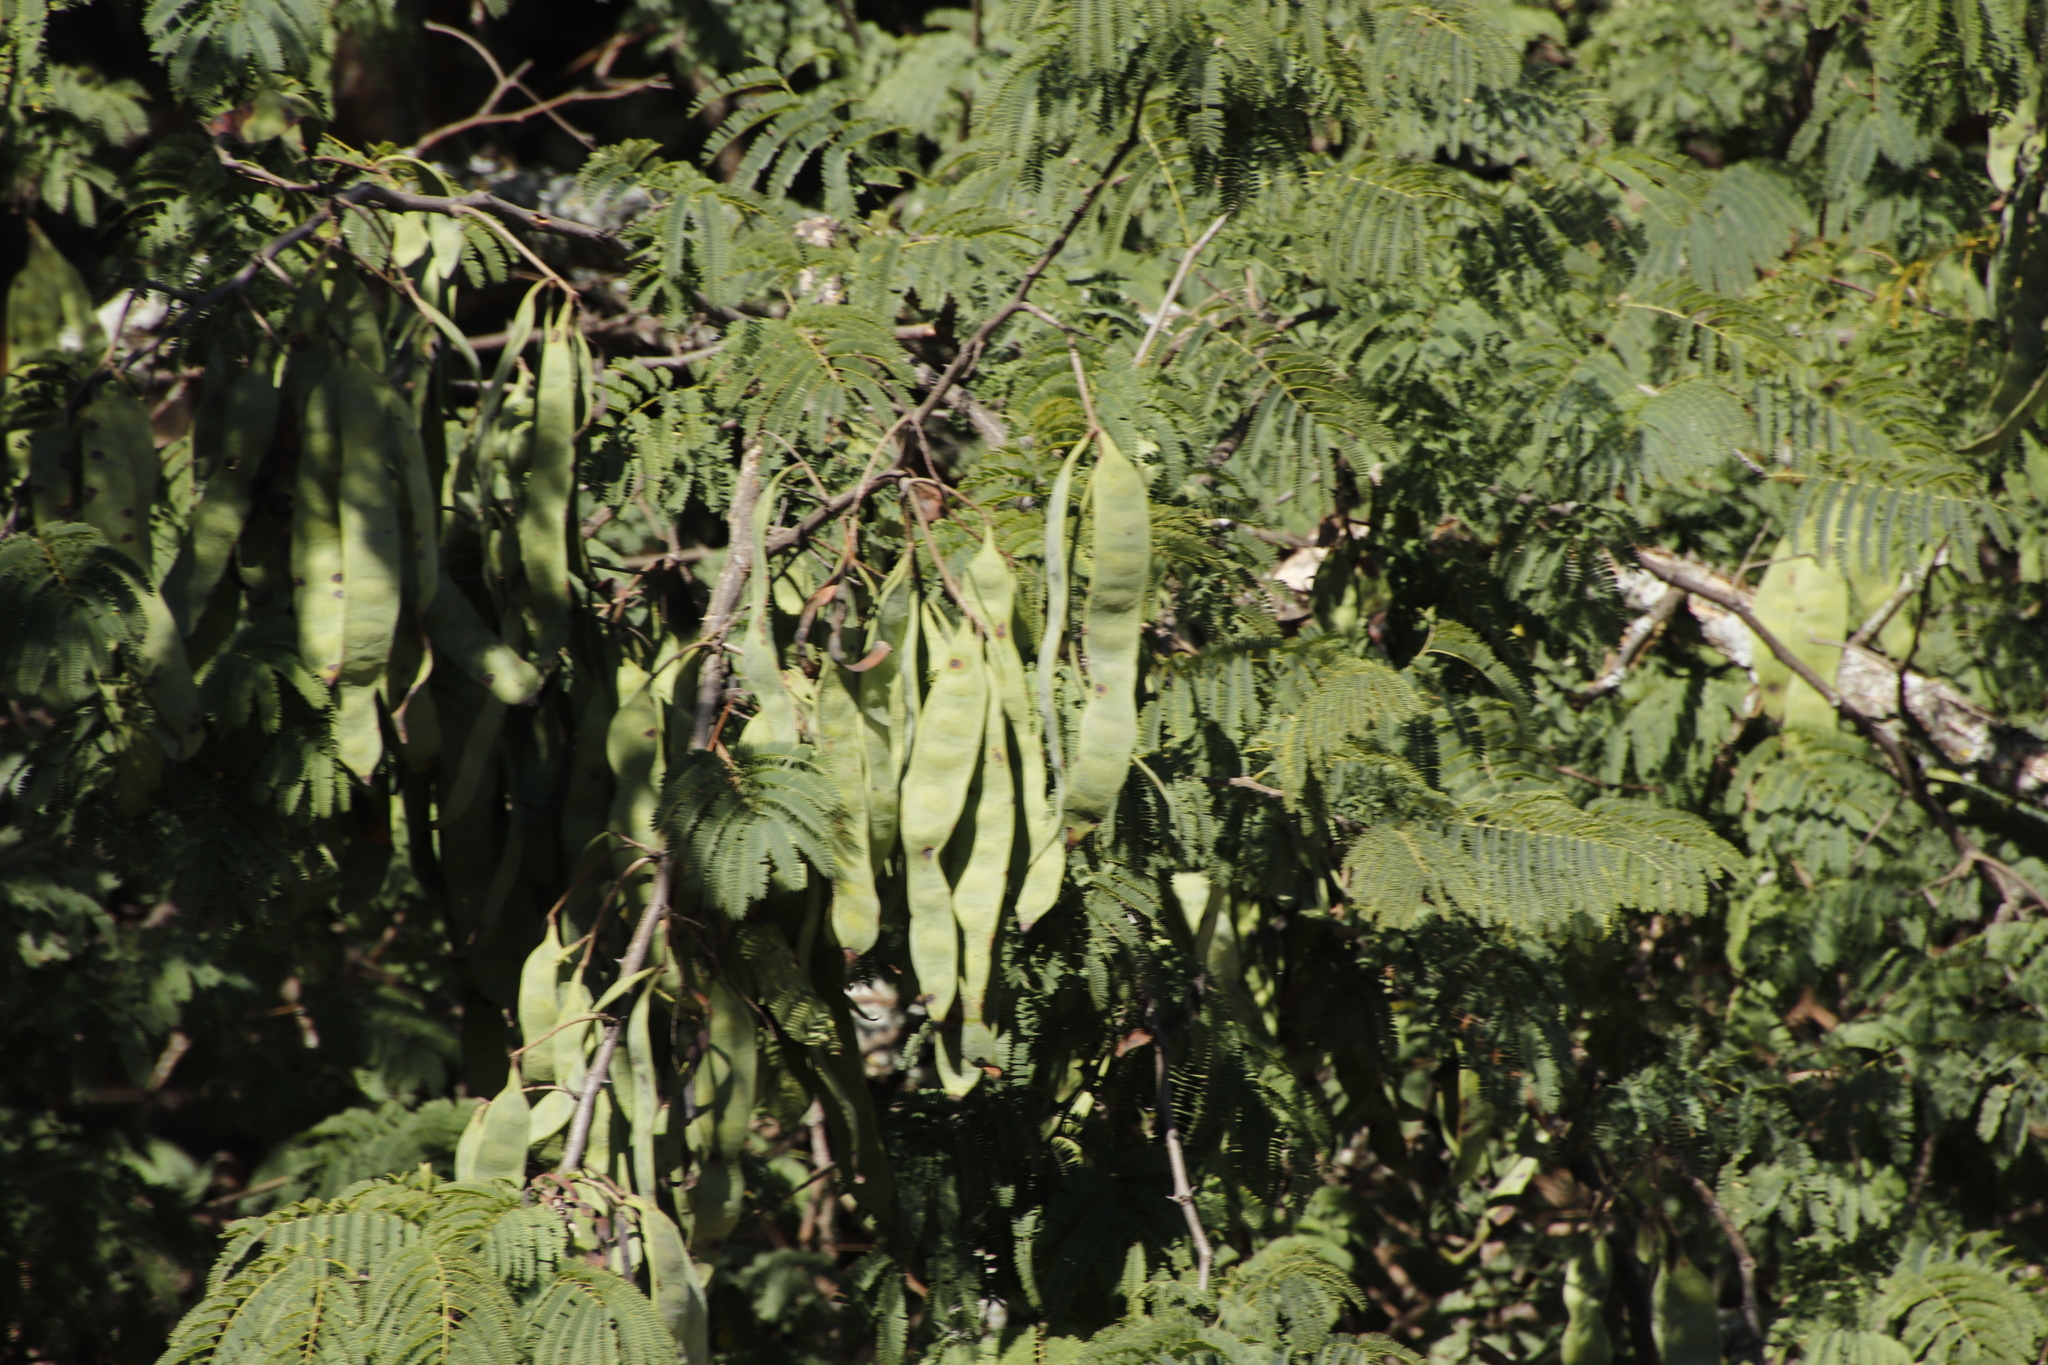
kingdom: Plantae
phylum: Tracheophyta
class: Magnoliopsida
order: Fabales
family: Fabaceae
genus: Senegalia
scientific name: Senegalia caffra
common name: Cat thorn
